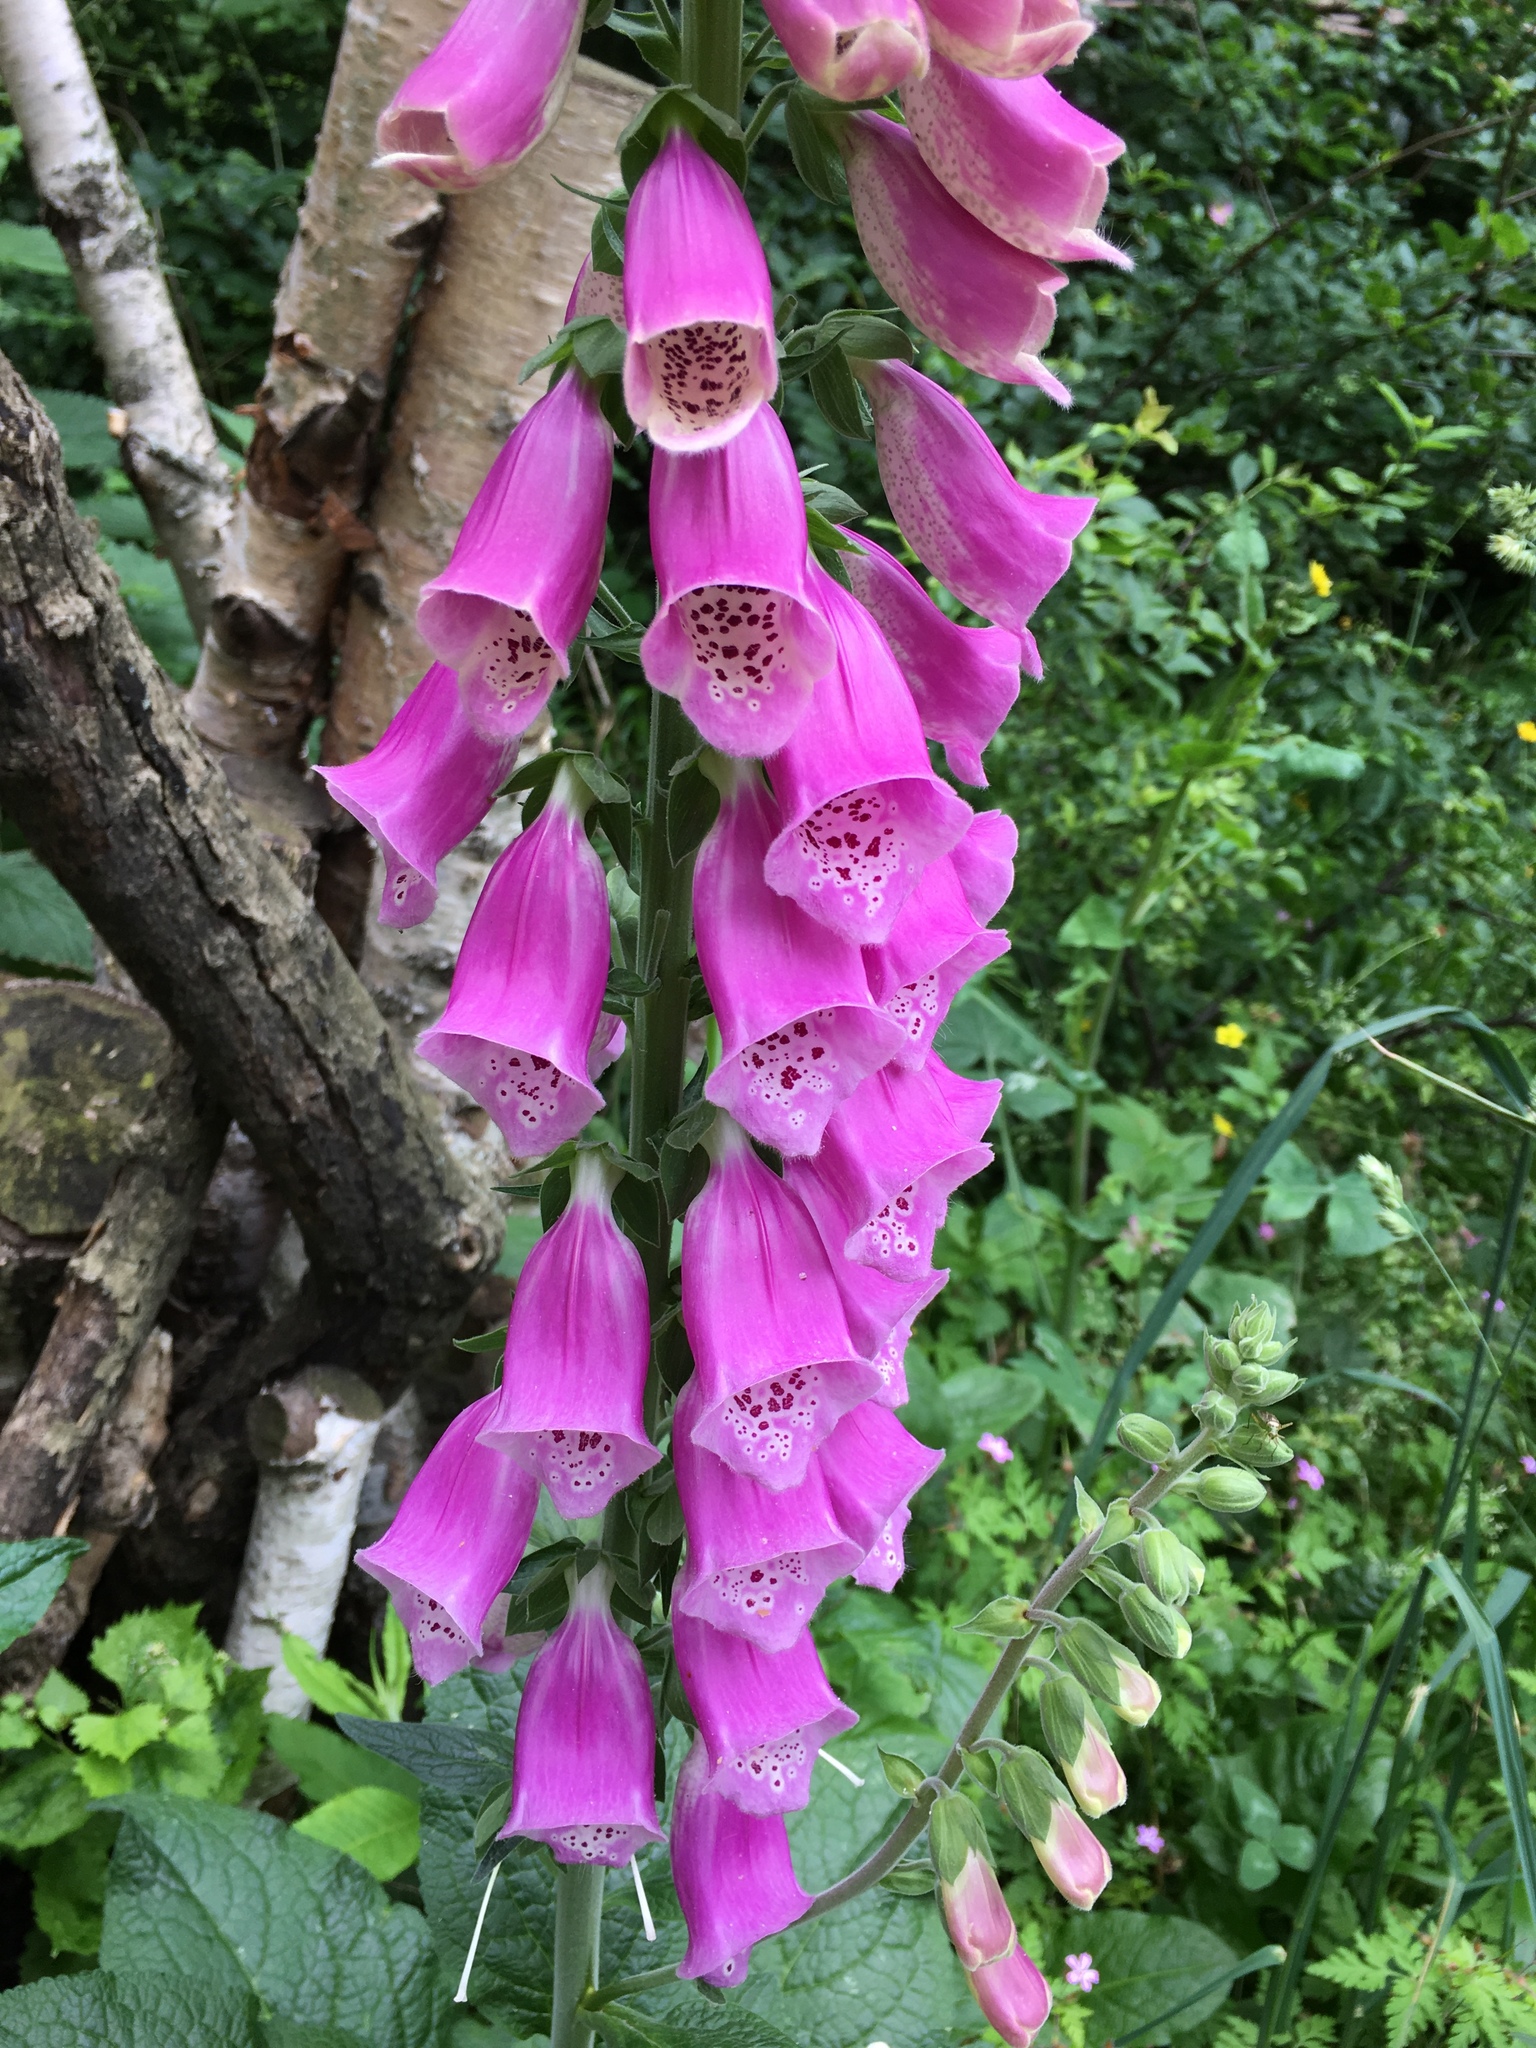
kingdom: Plantae
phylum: Tracheophyta
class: Magnoliopsida
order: Lamiales
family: Plantaginaceae
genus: Digitalis
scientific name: Digitalis purpurea
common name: Foxglove
